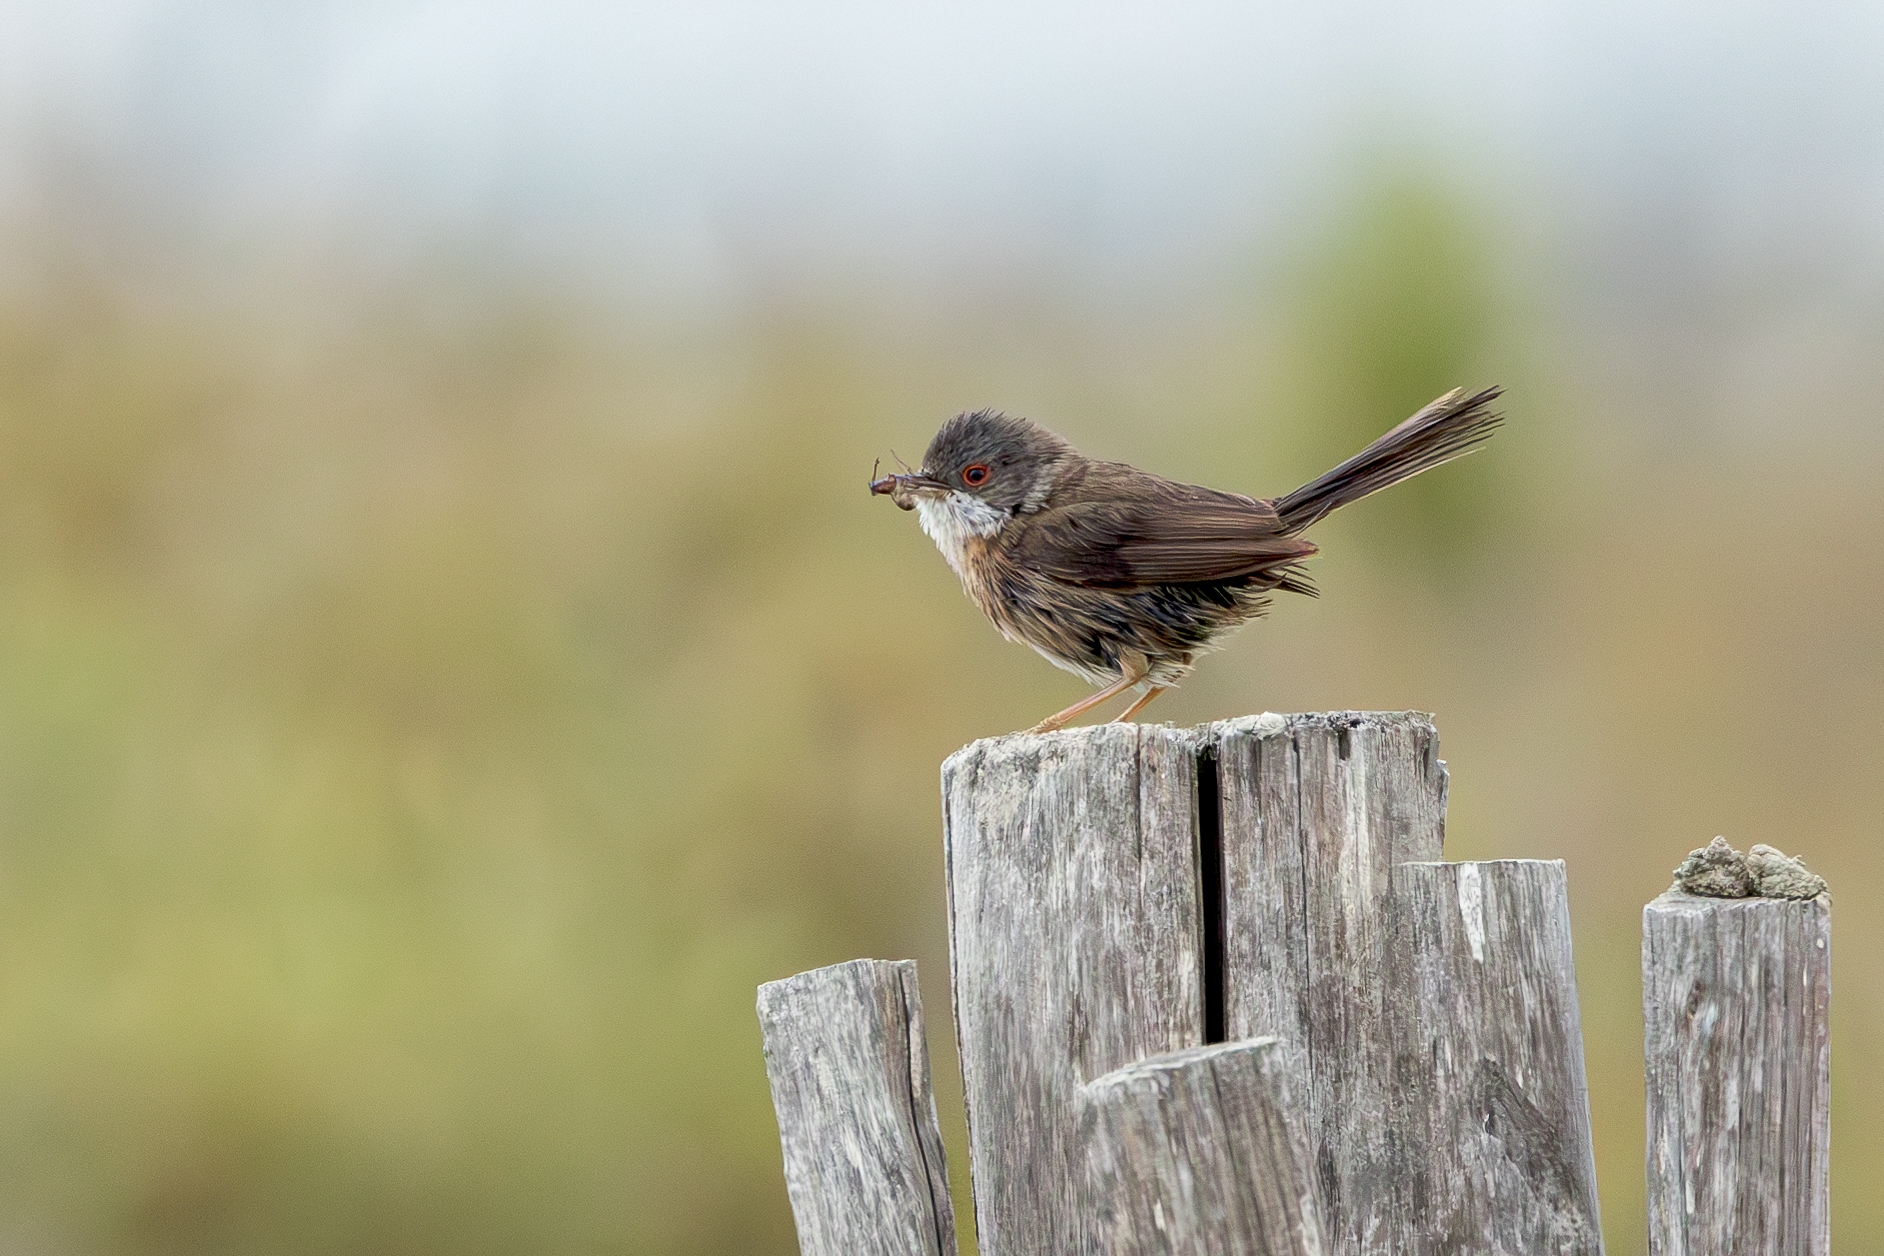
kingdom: Animalia
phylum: Chordata
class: Aves
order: Passeriformes
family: Sylviidae
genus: Curruca
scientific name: Curruca melanocephala
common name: Sardinian warbler
